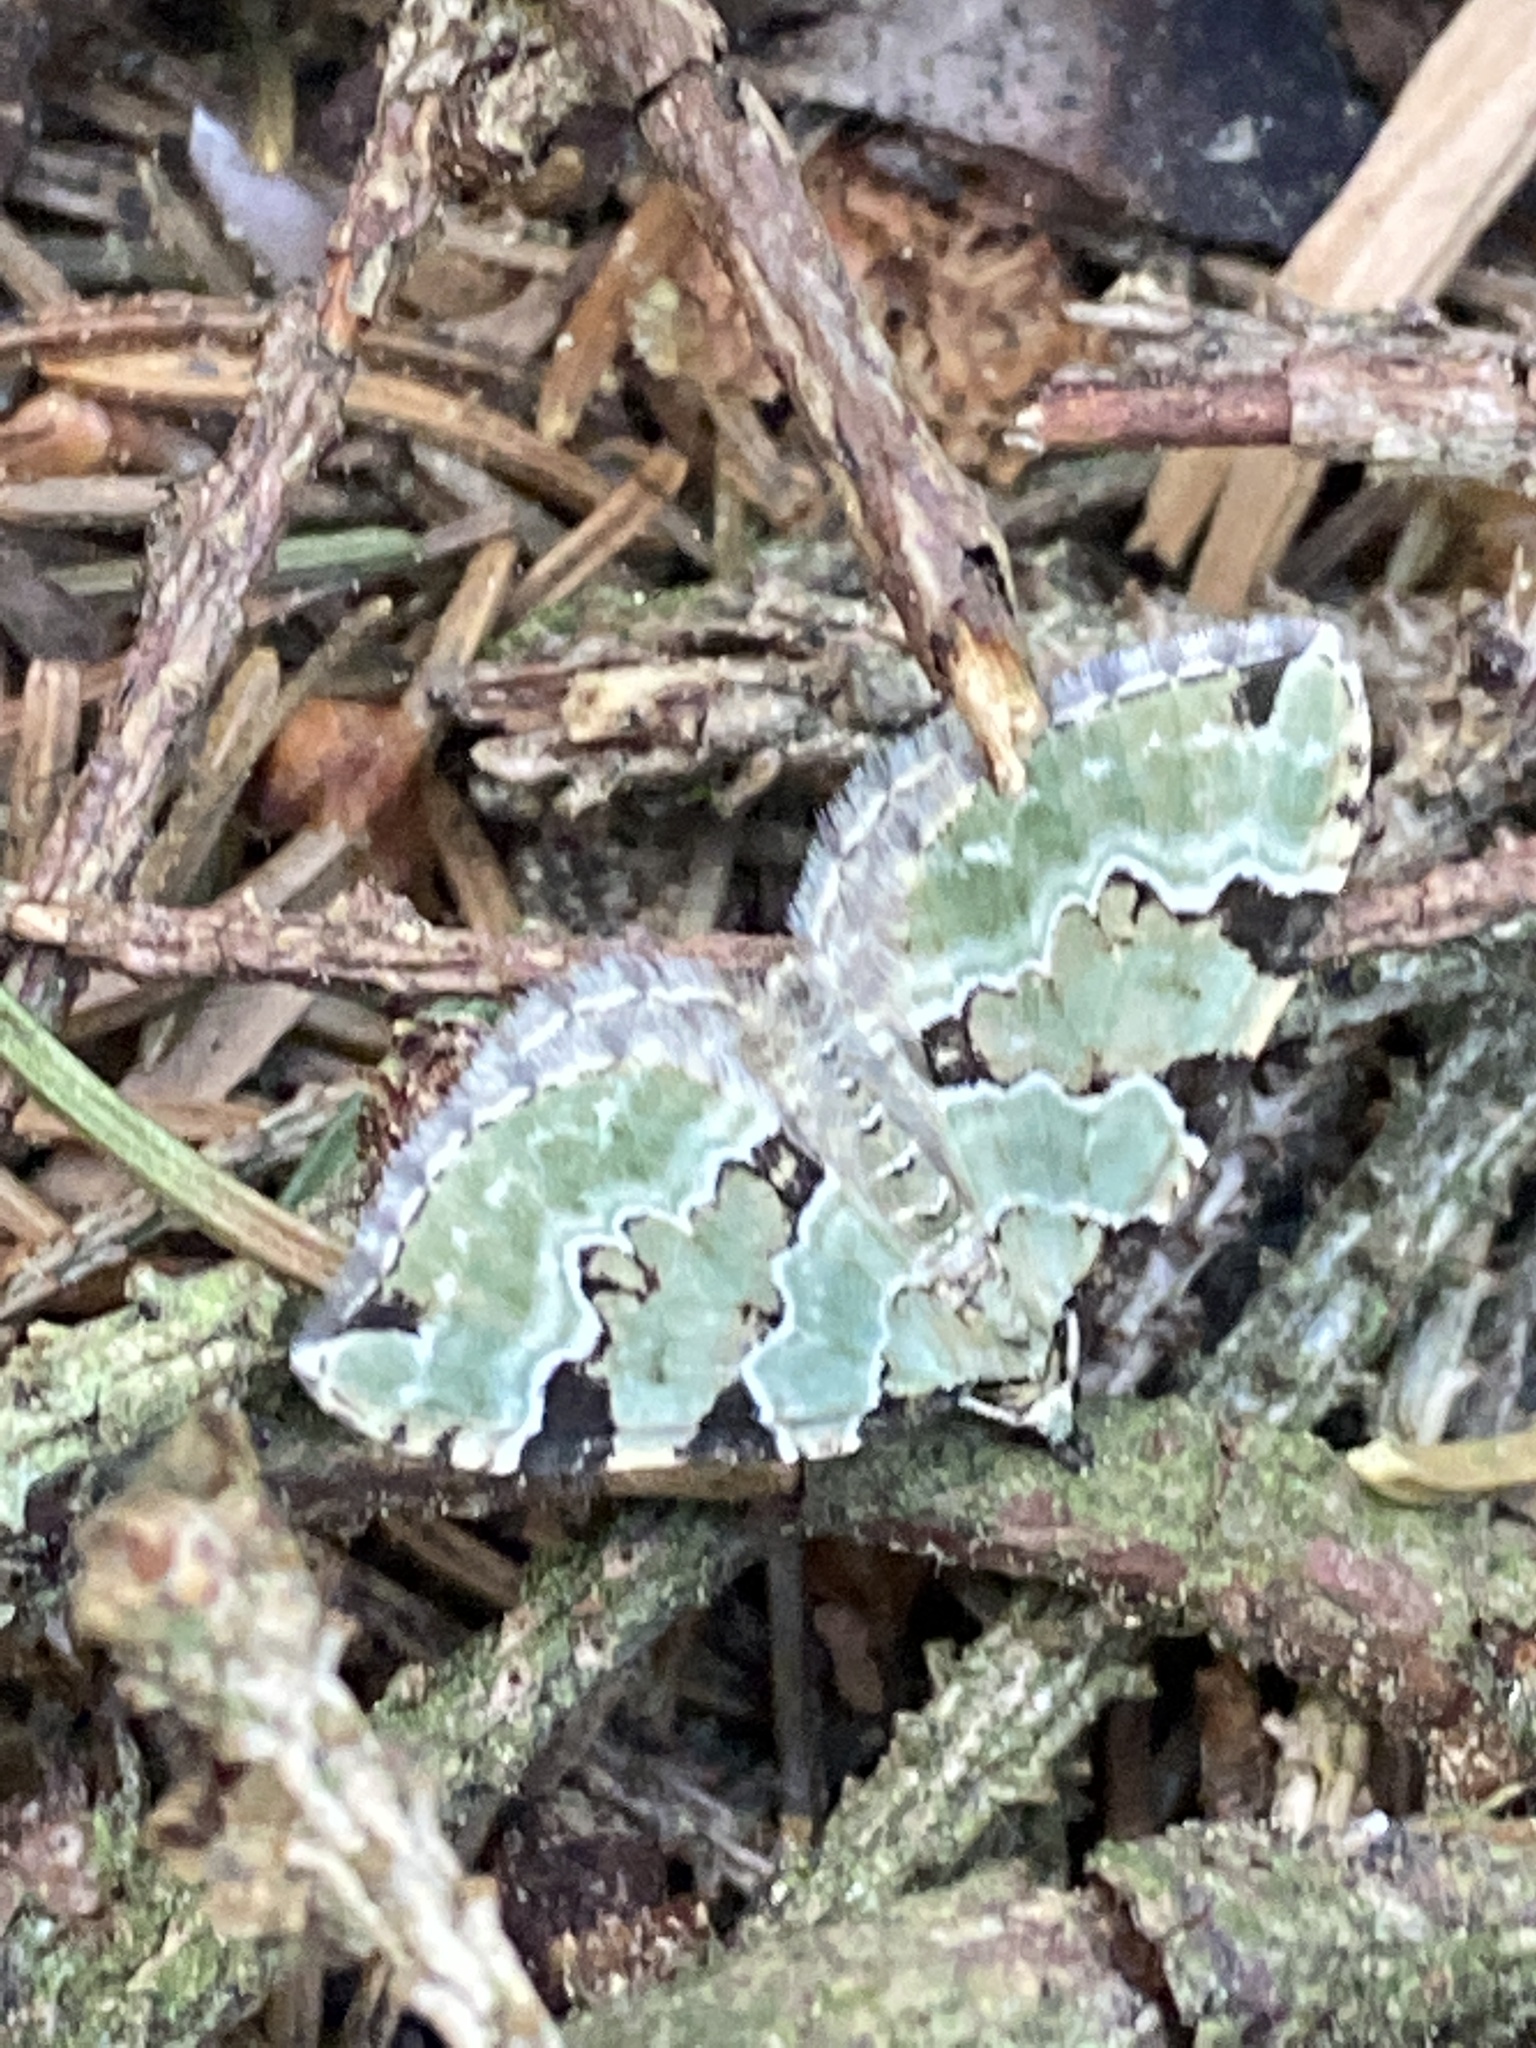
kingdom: Animalia
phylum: Arthropoda
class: Insecta
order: Lepidoptera
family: Geometridae
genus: Colostygia
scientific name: Colostygia pectinataria
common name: Green carpet
